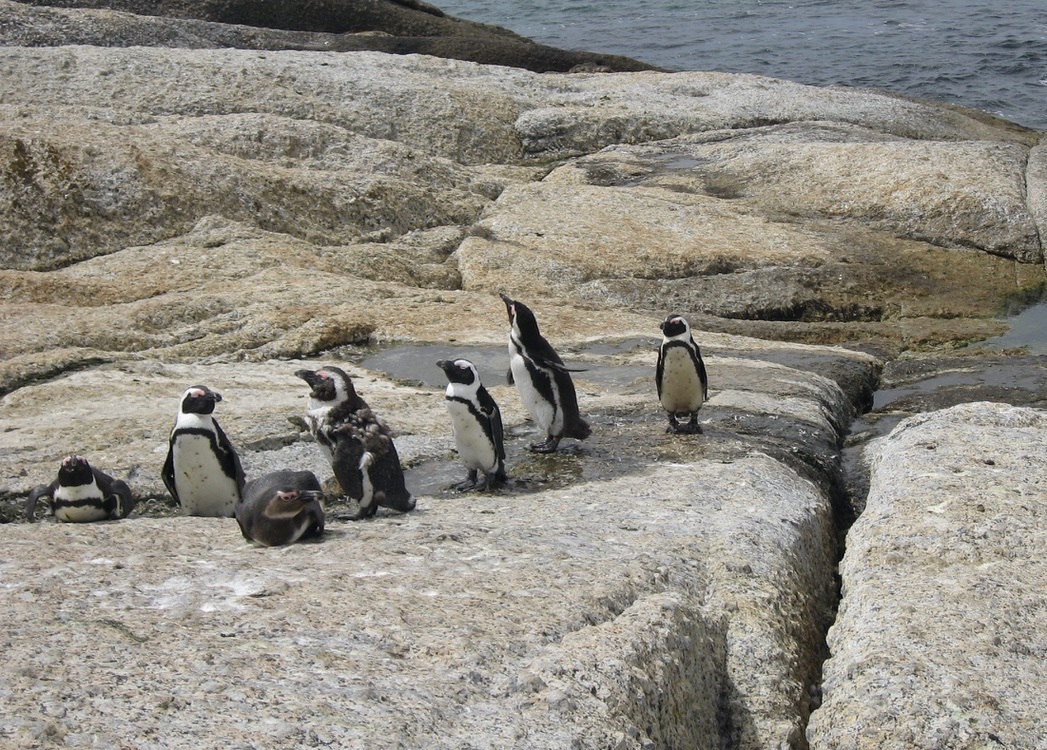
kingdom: Animalia
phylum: Chordata
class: Aves
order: Sphenisciformes
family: Spheniscidae
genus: Spheniscus
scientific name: Spheniscus demersus
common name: African penguin
